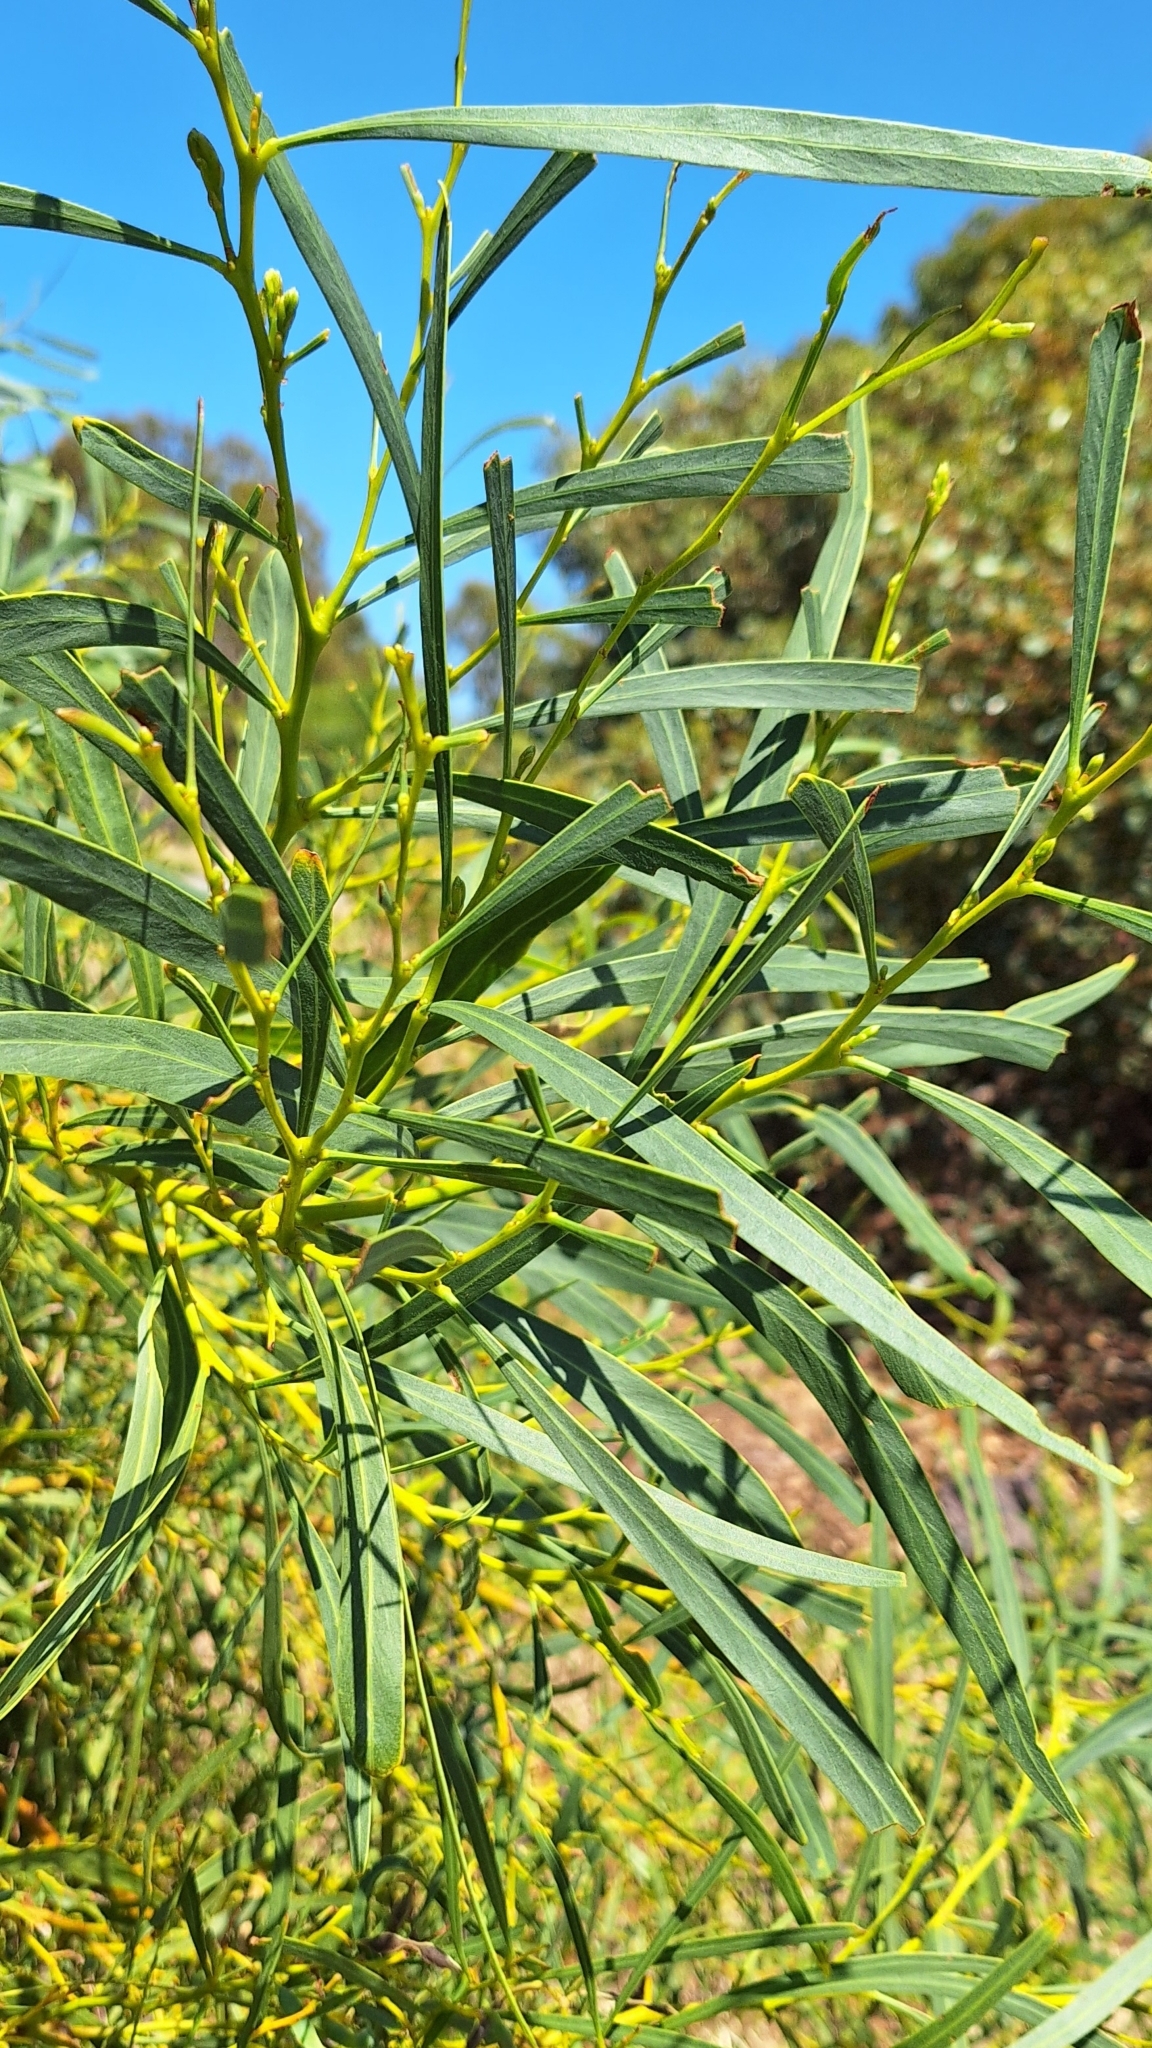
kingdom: Plantae
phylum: Tracheophyta
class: Magnoliopsida
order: Fabales
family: Fabaceae
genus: Acacia
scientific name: Acacia saligna
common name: Orange wattle
